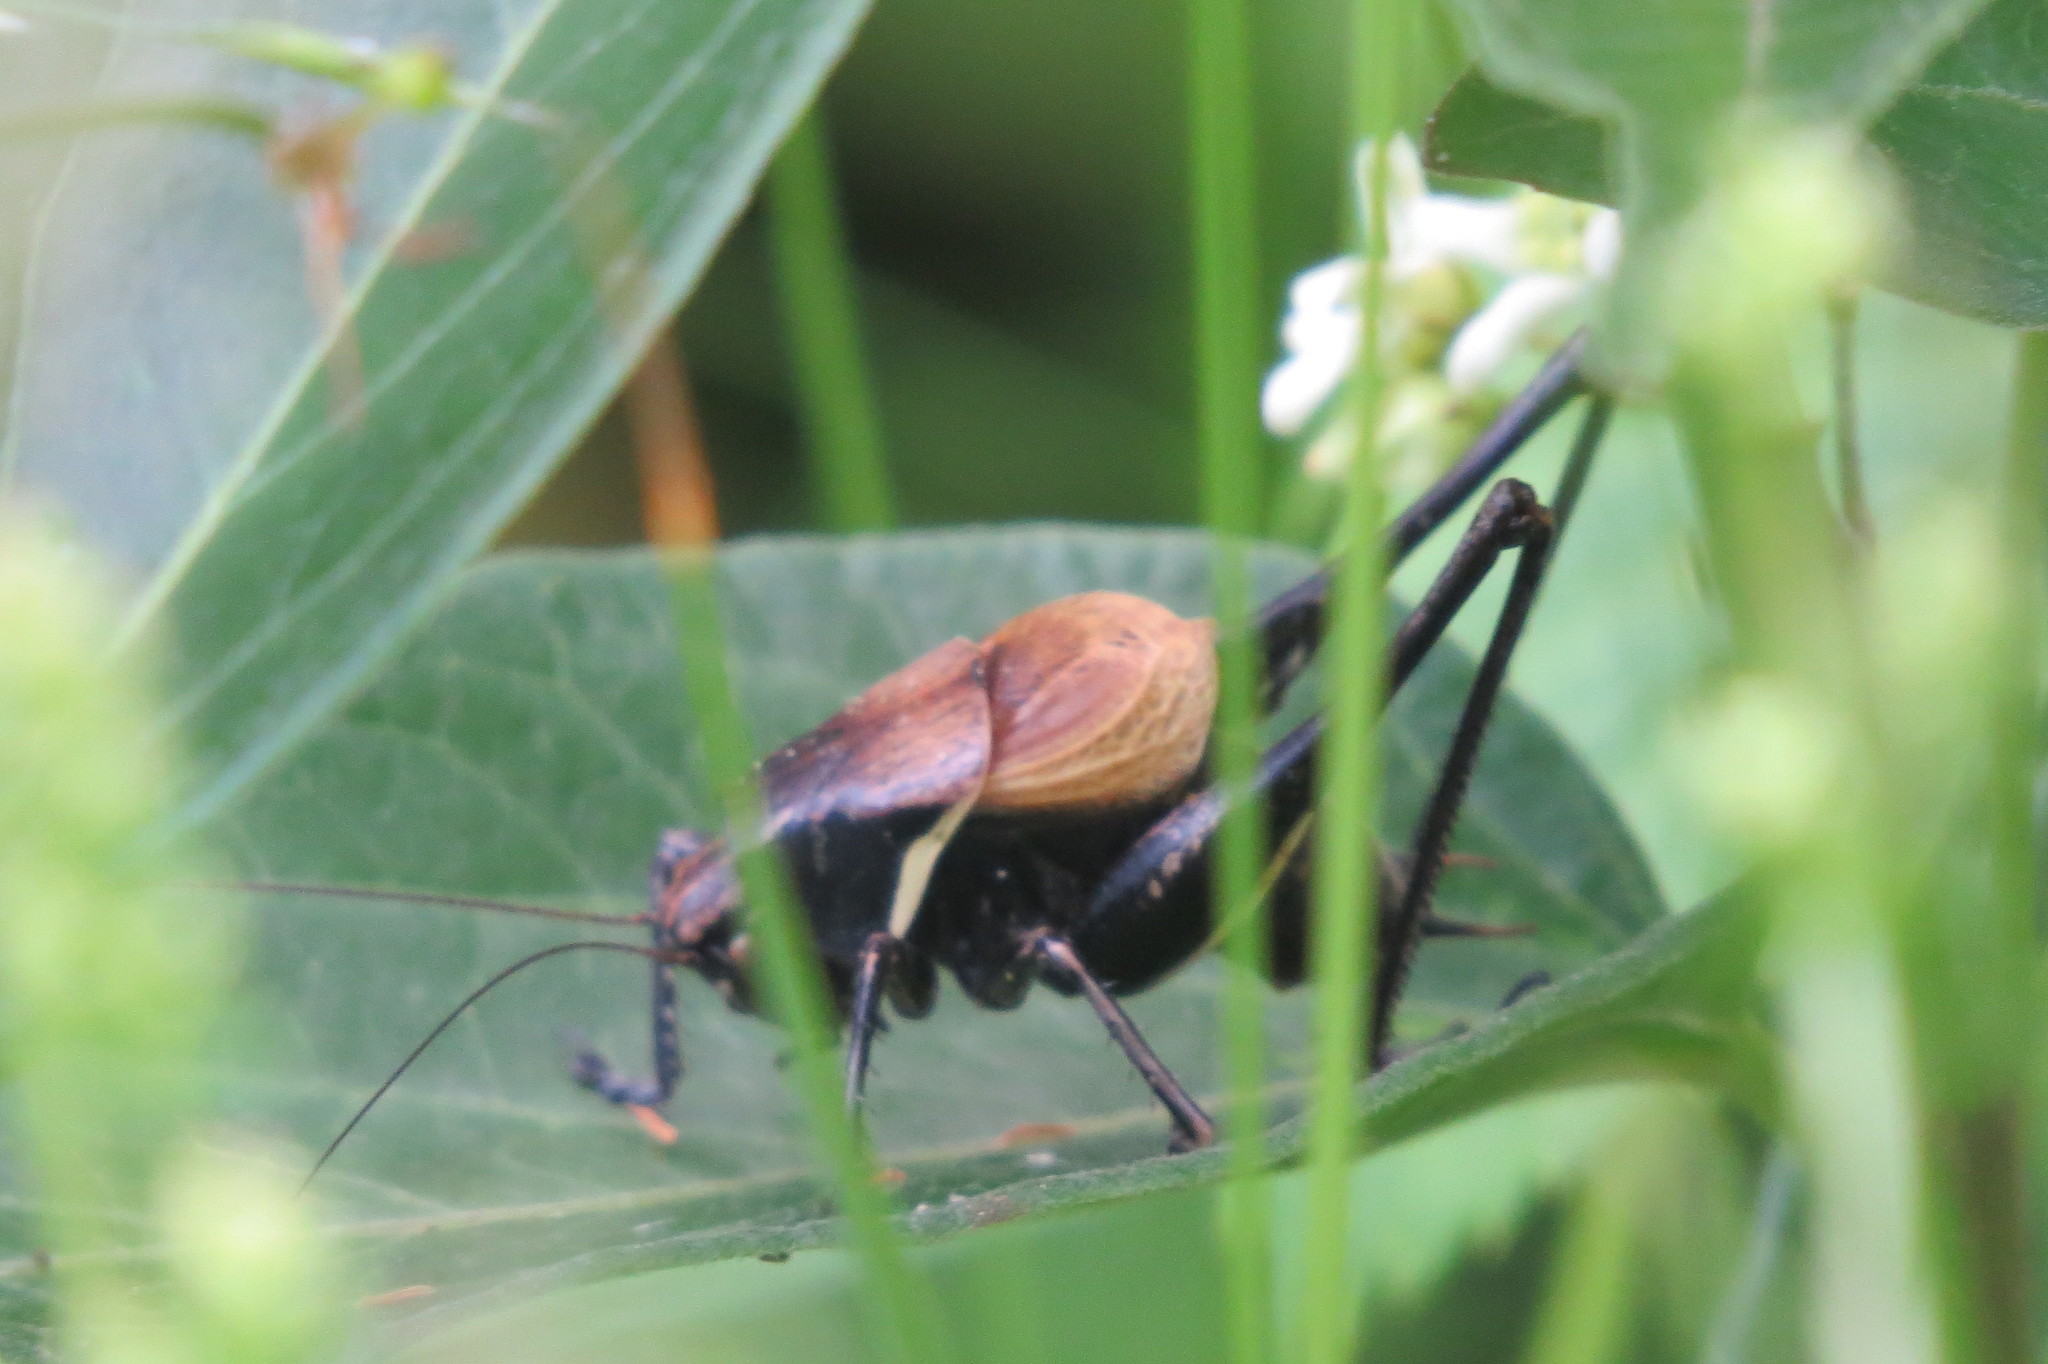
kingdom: Animalia
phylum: Arthropoda
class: Insecta
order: Orthoptera
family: Tettigoniidae
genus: Pholidoptera
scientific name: Pholidoptera aptera
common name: Alpine dark bush-cricket
